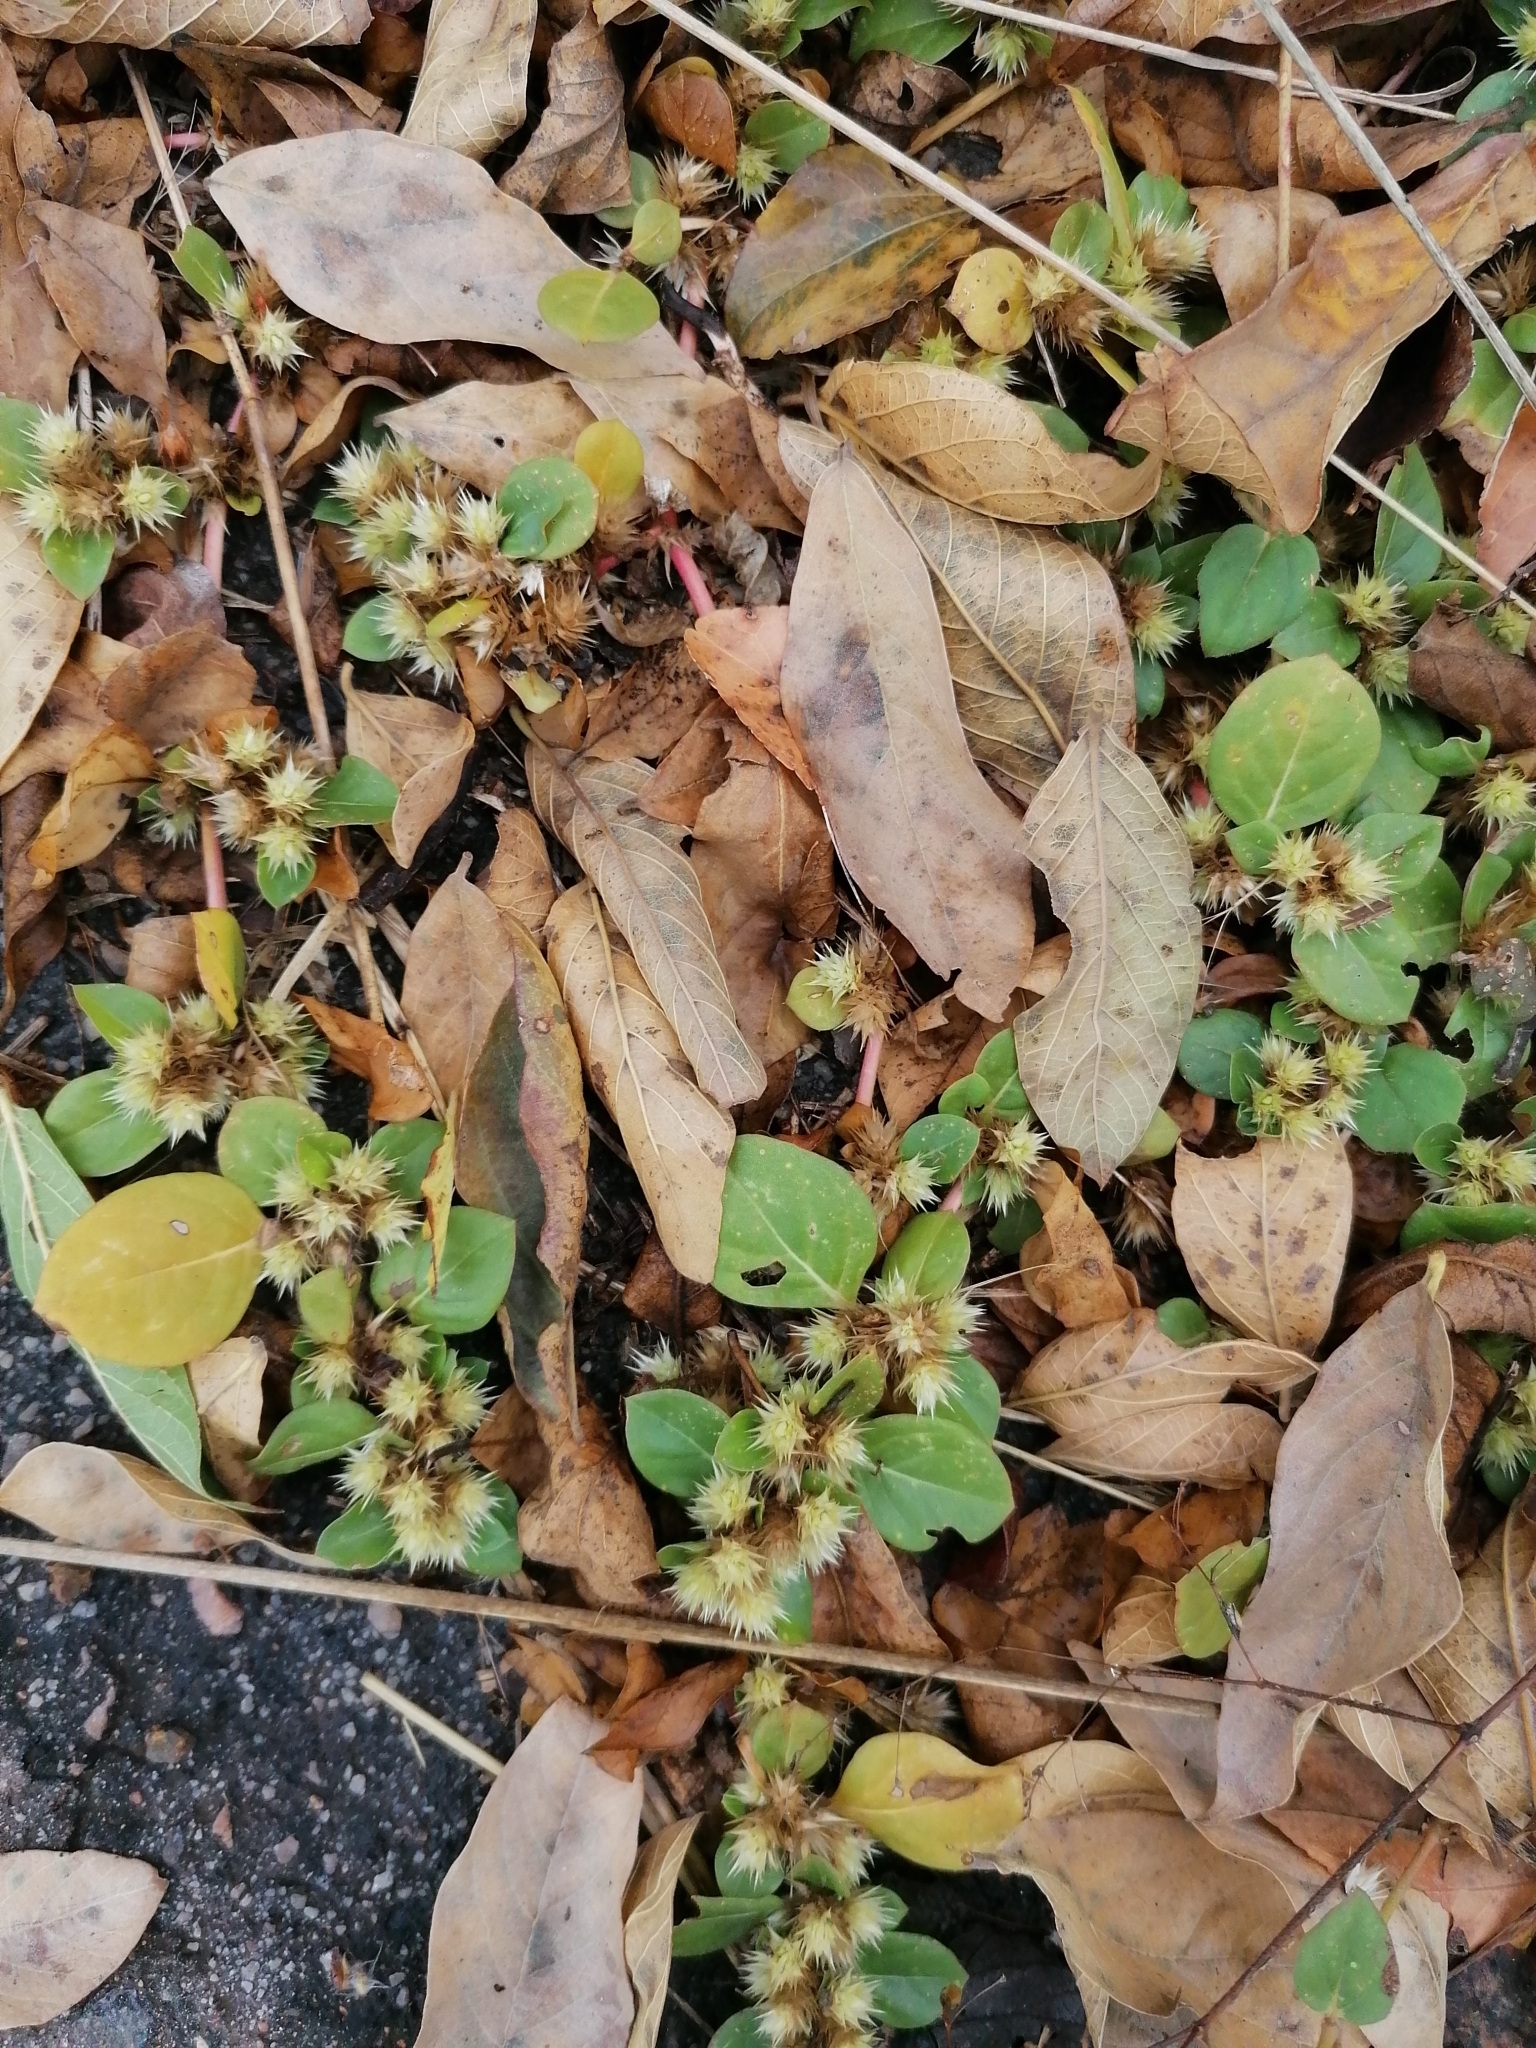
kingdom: Plantae
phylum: Tracheophyta
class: Magnoliopsida
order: Caryophyllales
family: Amaranthaceae
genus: Alternanthera
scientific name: Alternanthera pungens
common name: Khakiweed
